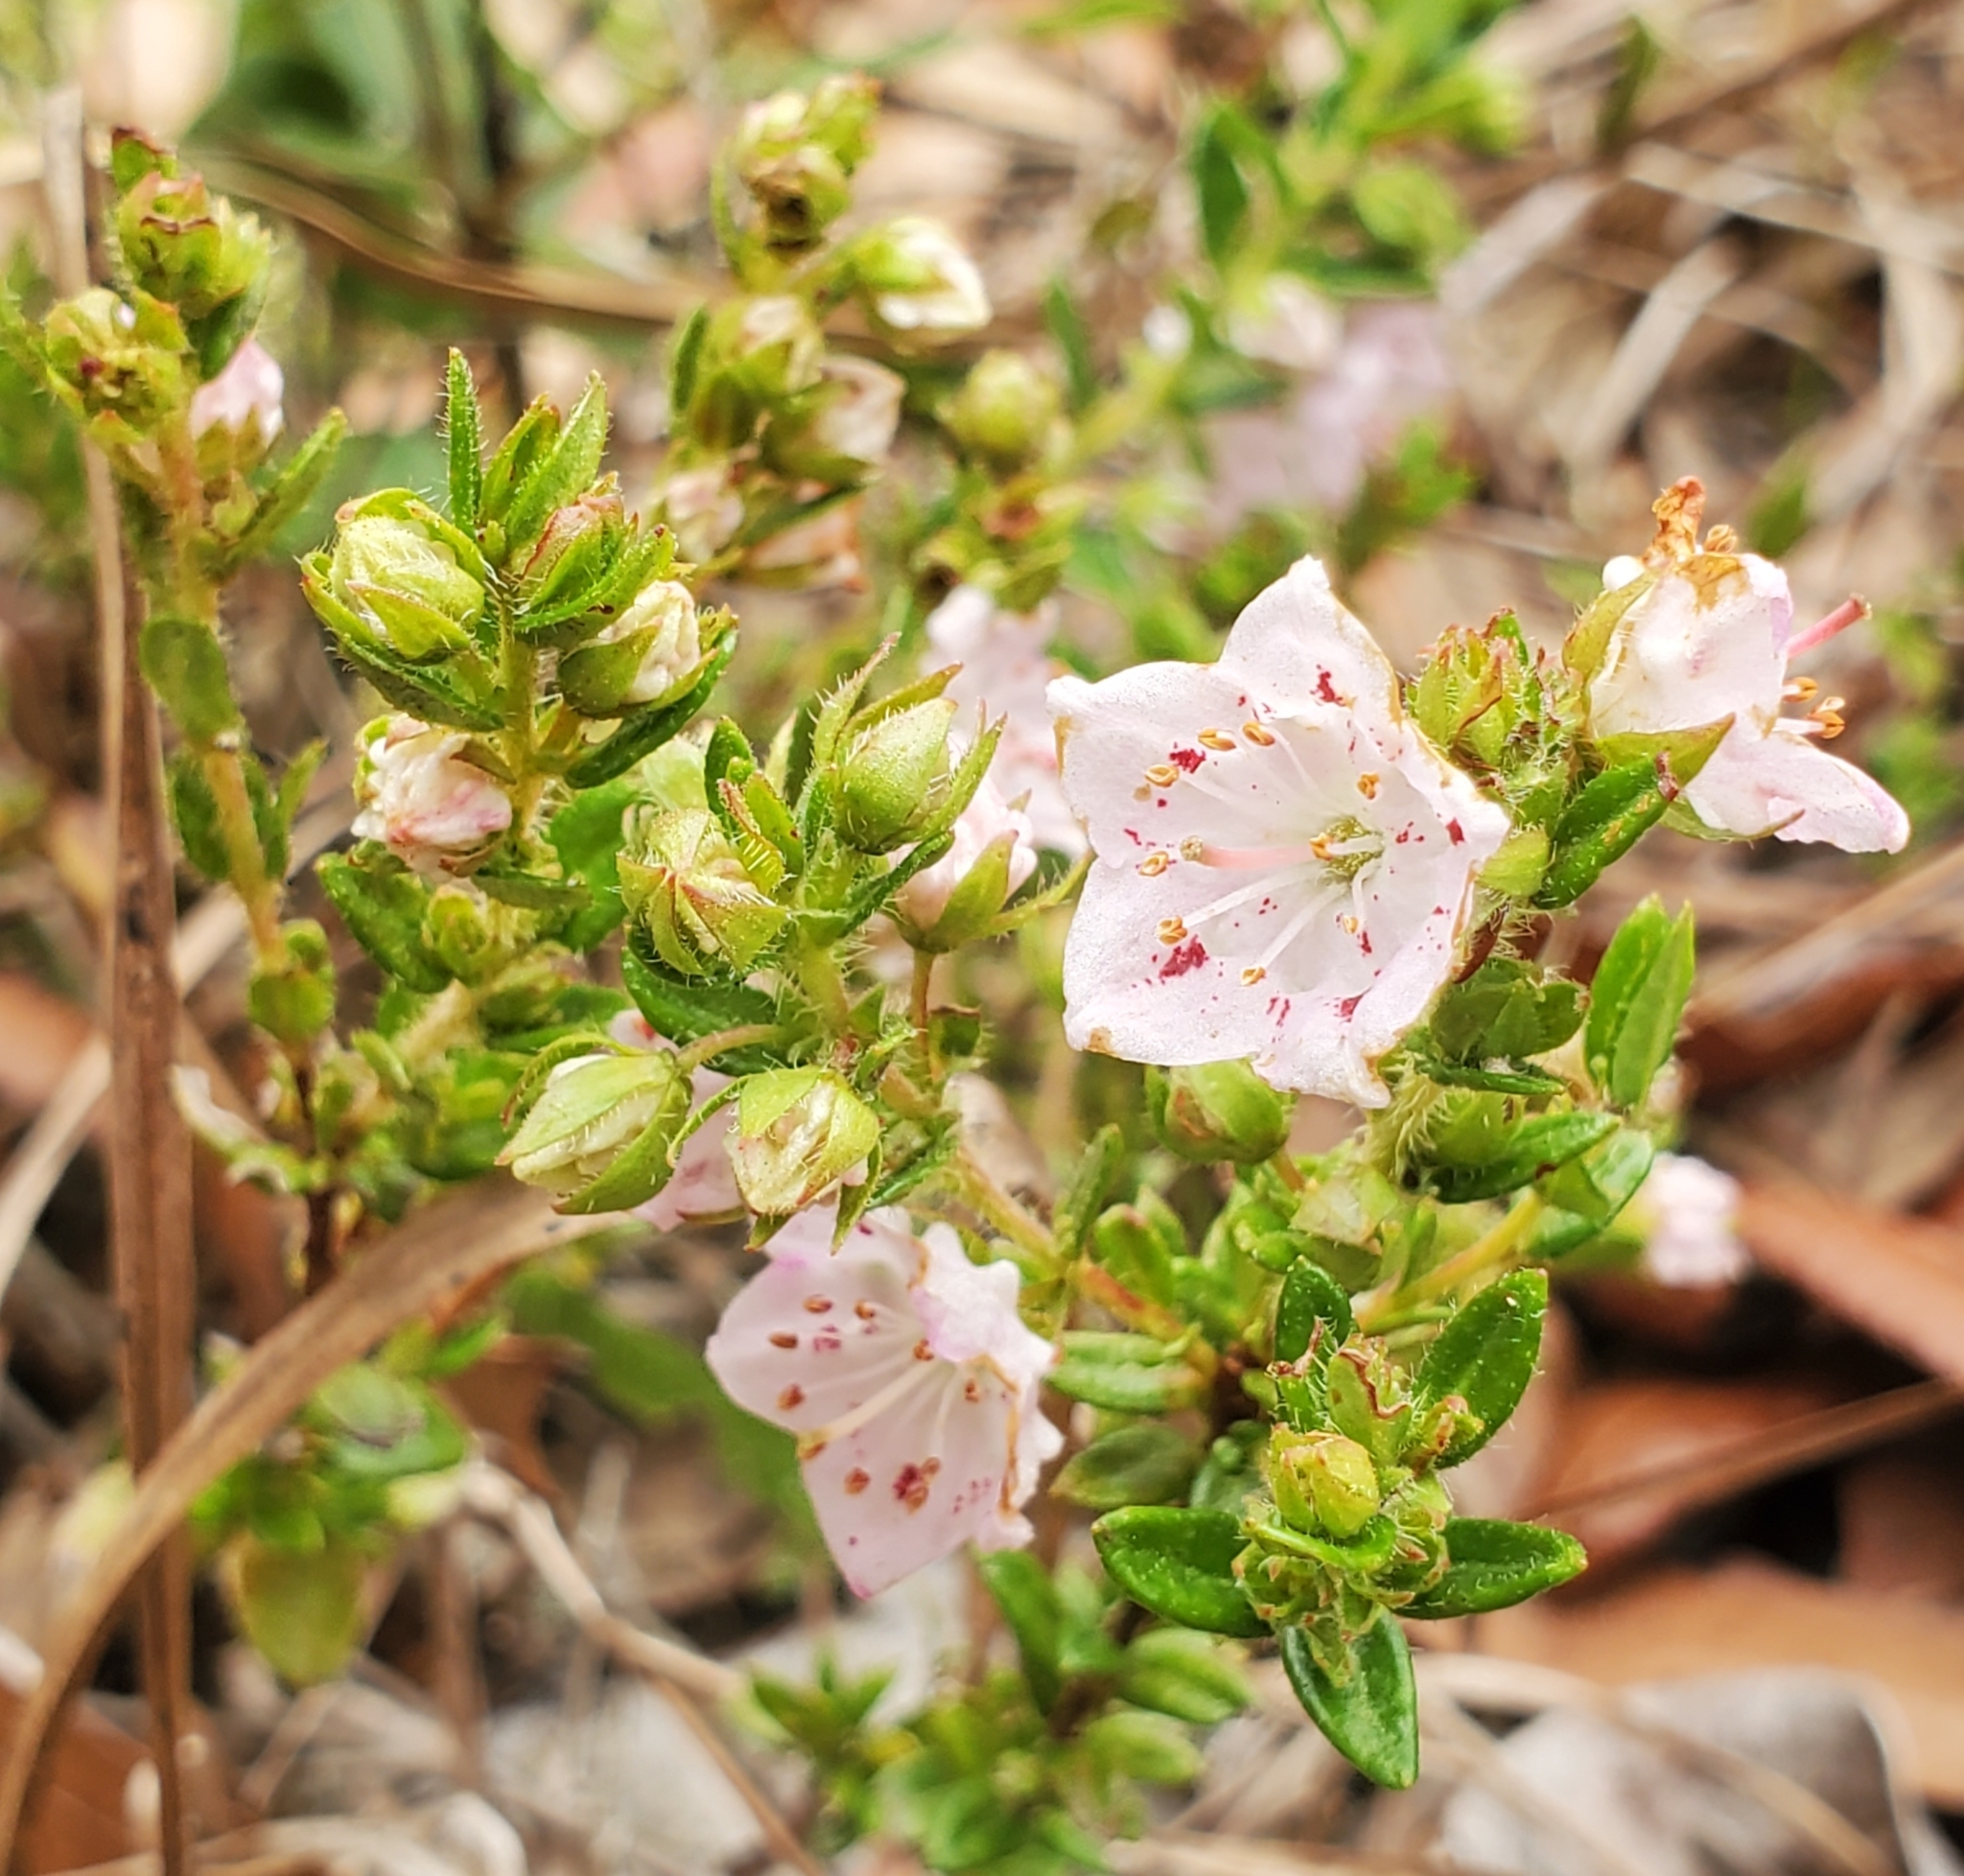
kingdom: Plantae
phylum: Tracheophyta
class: Magnoliopsida
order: Ericales
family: Ericaceae
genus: Kalmia
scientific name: Kalmia hirsuta
